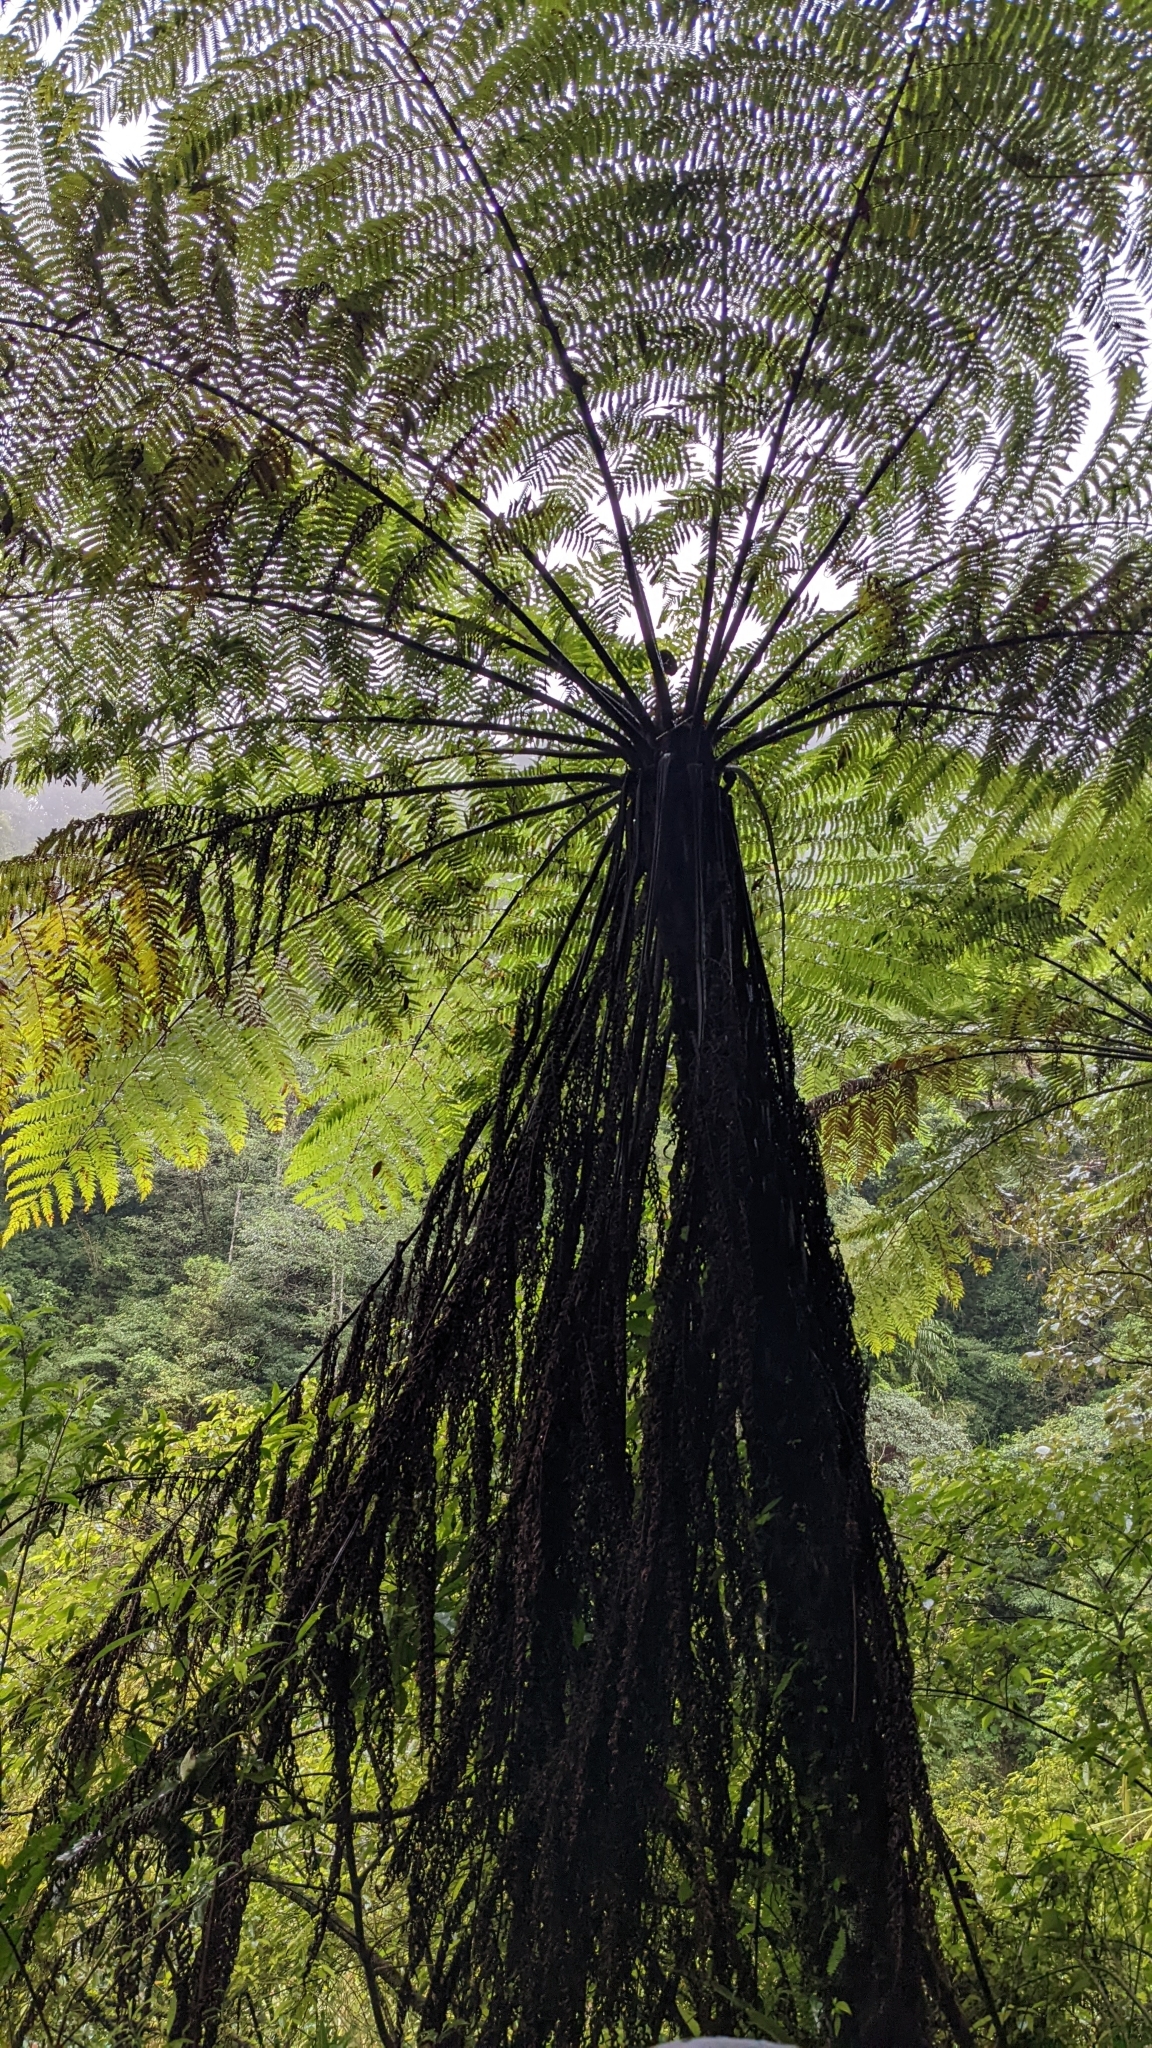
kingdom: Plantae
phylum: Tracheophyta
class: Polypodiopsida
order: Cyatheales
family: Cyatheaceae
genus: Alsophila
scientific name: Alsophila spinulosa
